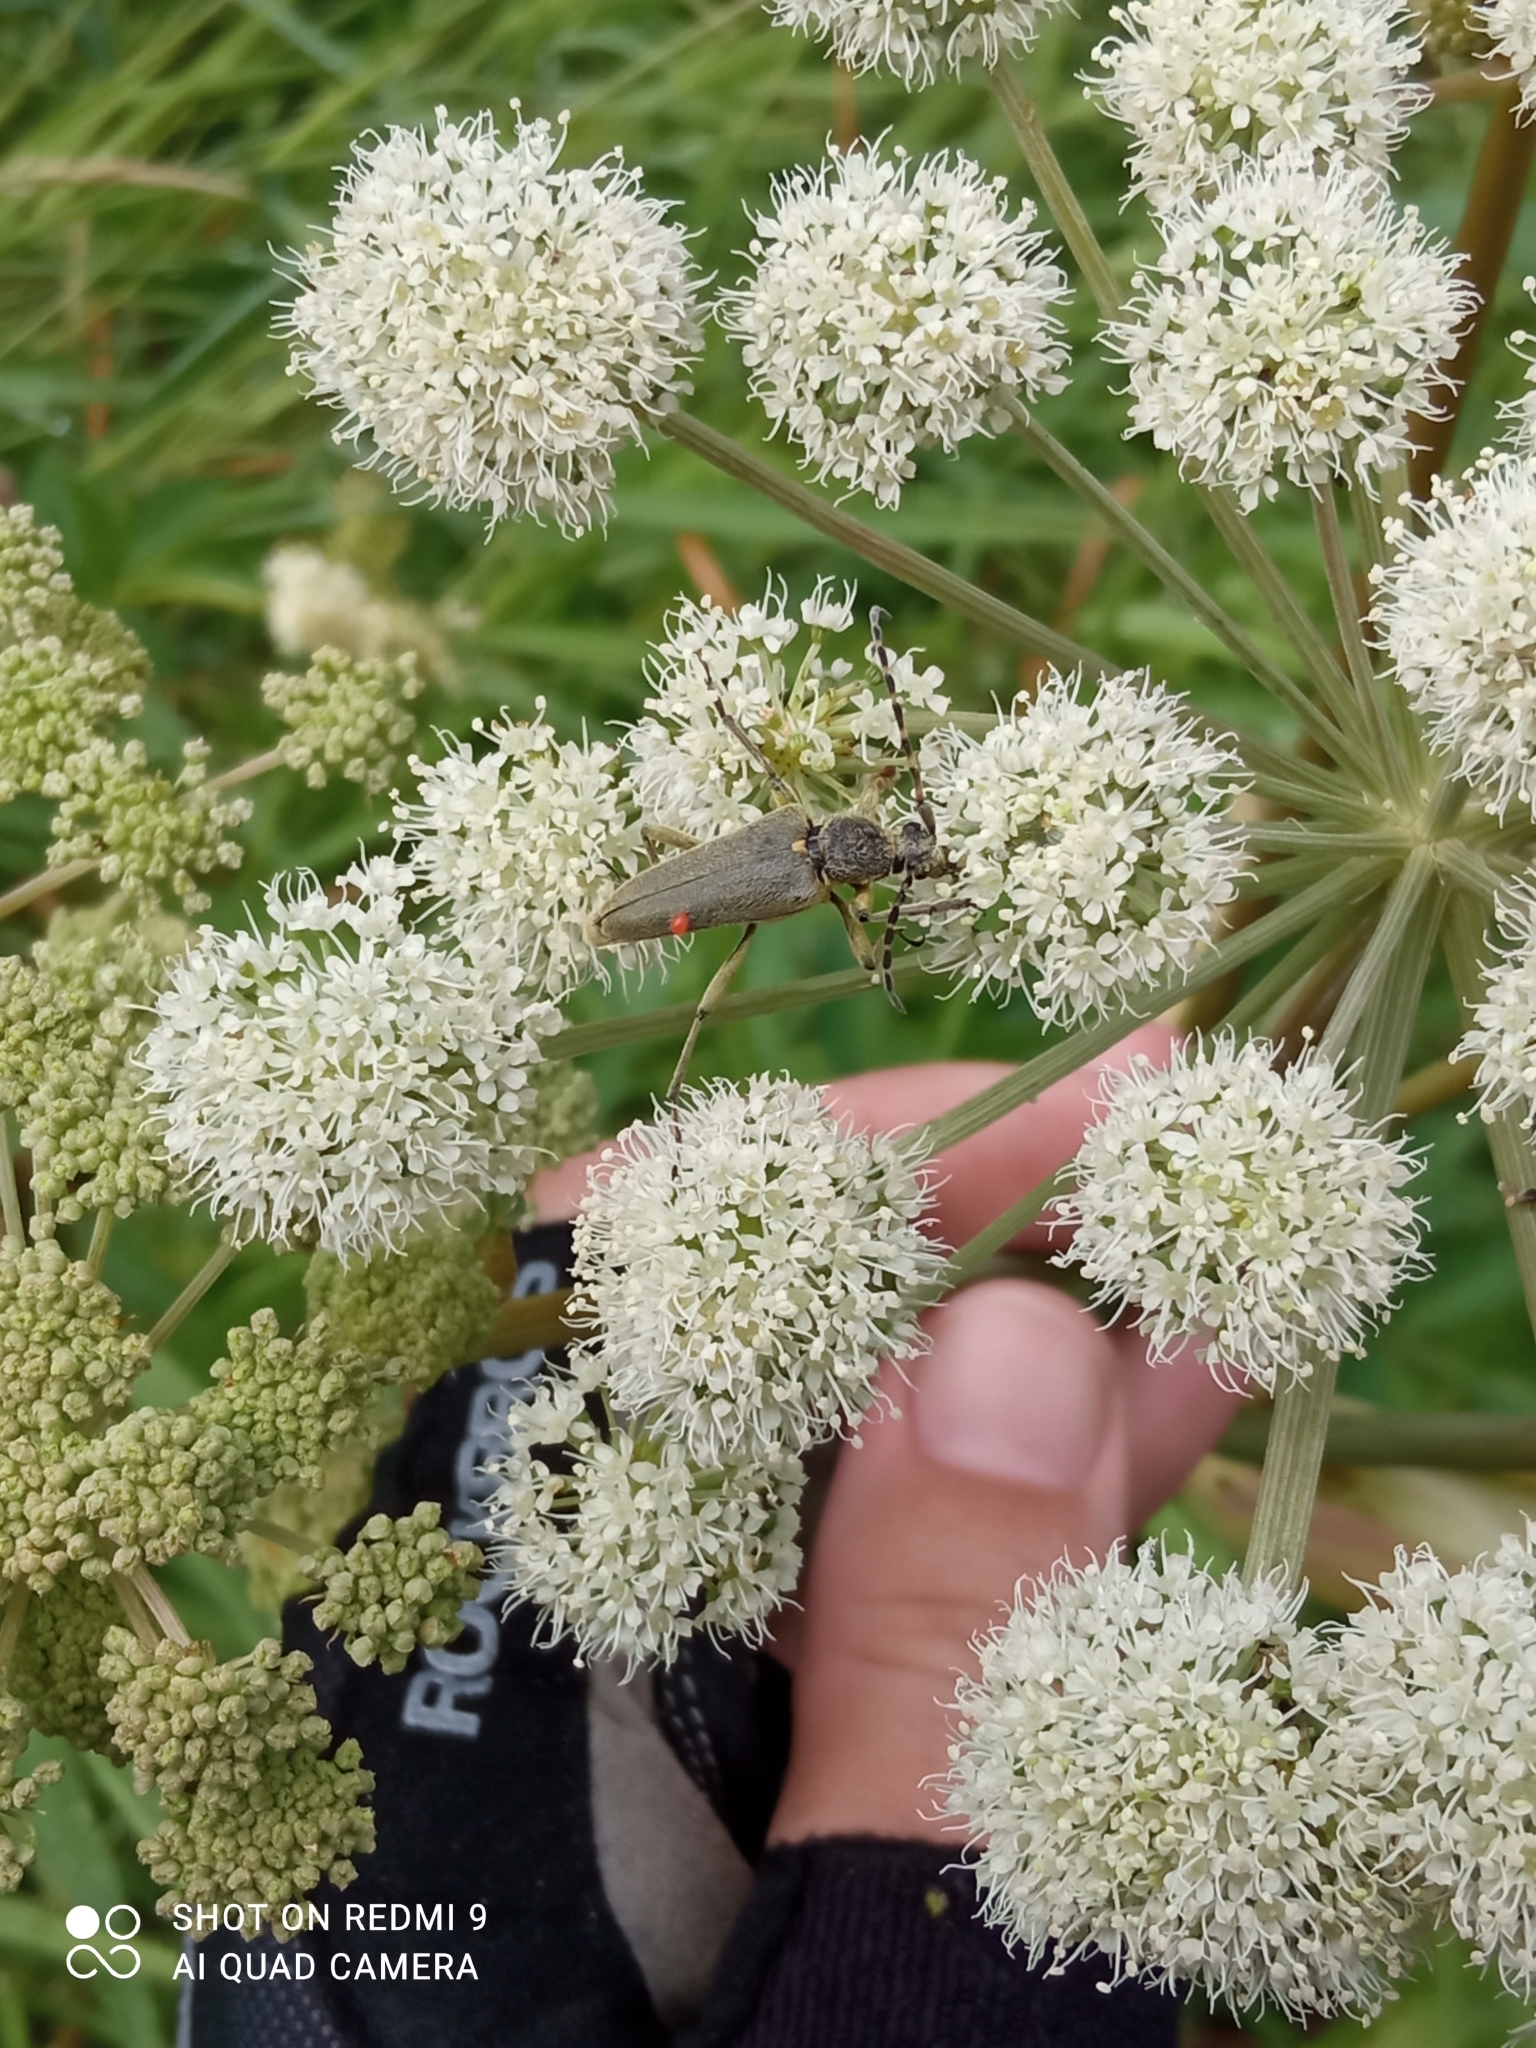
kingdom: Animalia
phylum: Arthropoda
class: Insecta
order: Coleoptera
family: Cerambycidae
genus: Lepturobosca
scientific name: Lepturobosca virens
